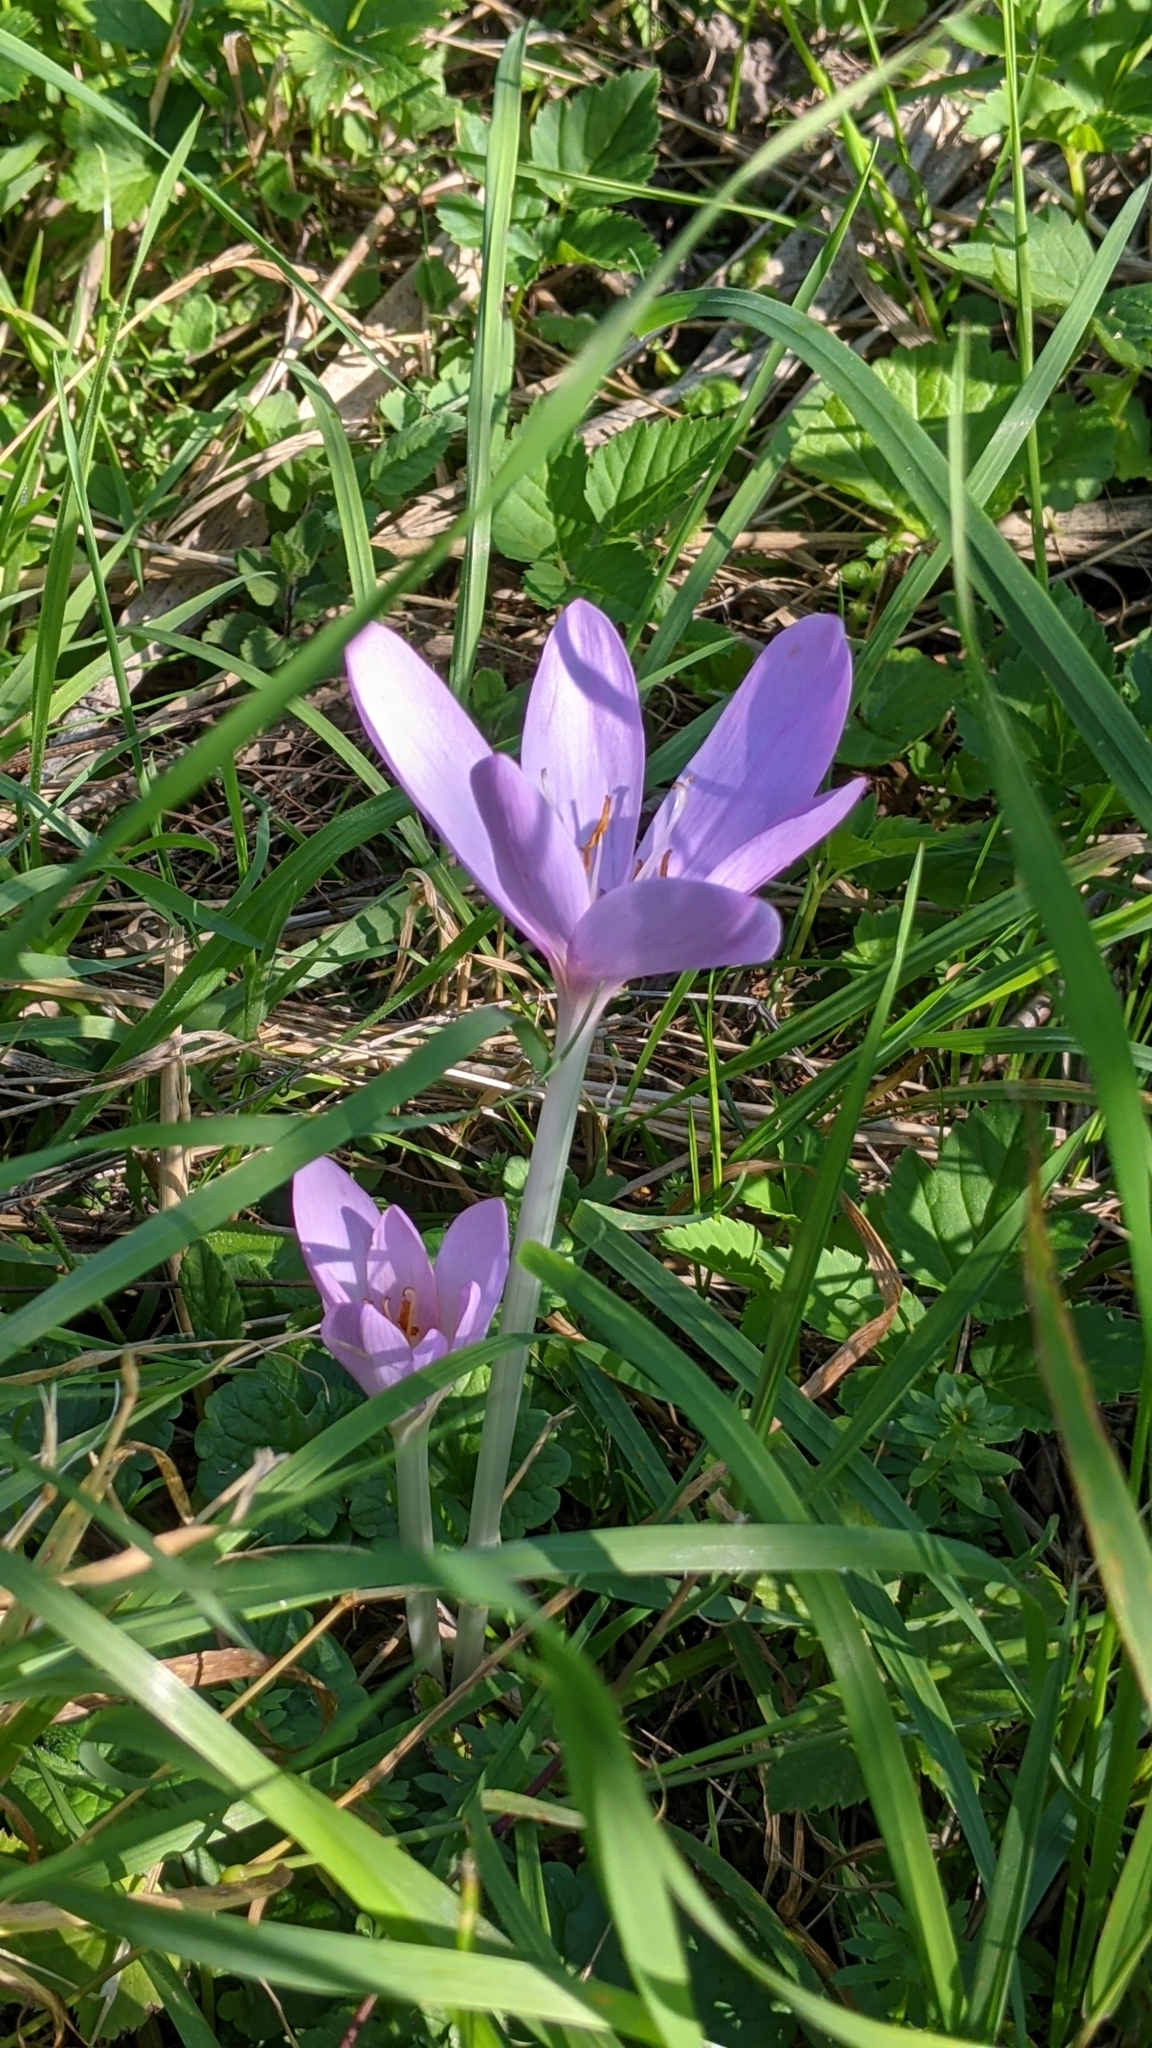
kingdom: Plantae
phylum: Tracheophyta
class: Liliopsida
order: Liliales
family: Colchicaceae
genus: Colchicum
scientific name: Colchicum autumnale
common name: Autumn crocus
